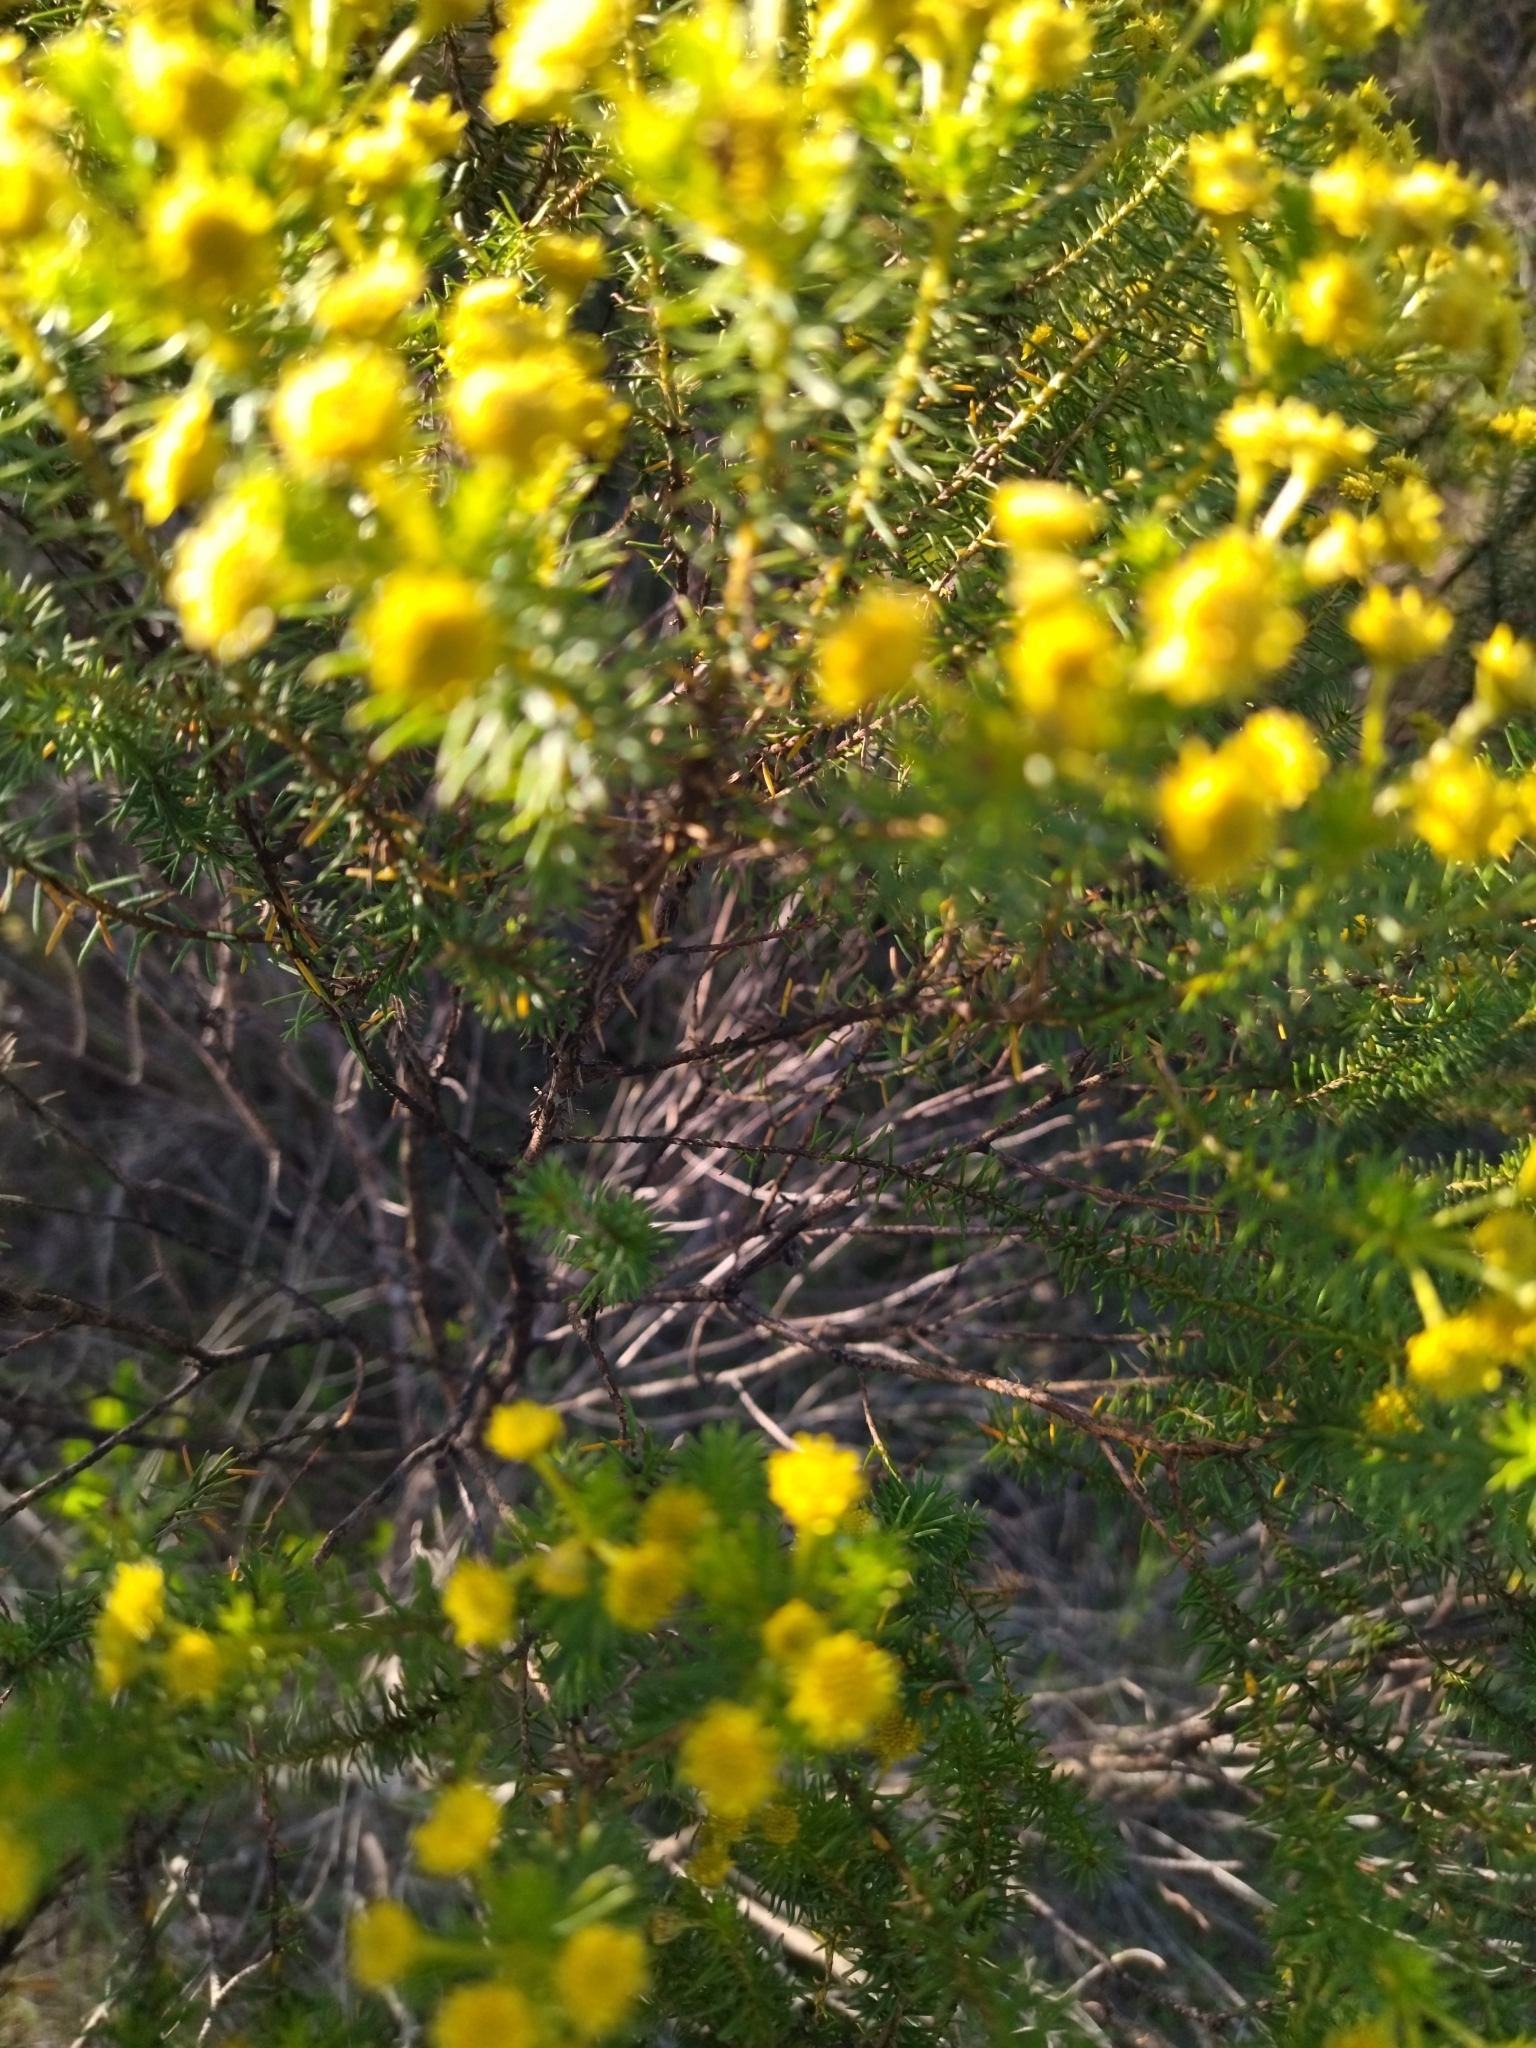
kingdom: Plantae
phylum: Tracheophyta
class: Magnoliopsida
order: Asterales
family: Asteraceae
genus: Baccharis
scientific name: Baccharis aliena
